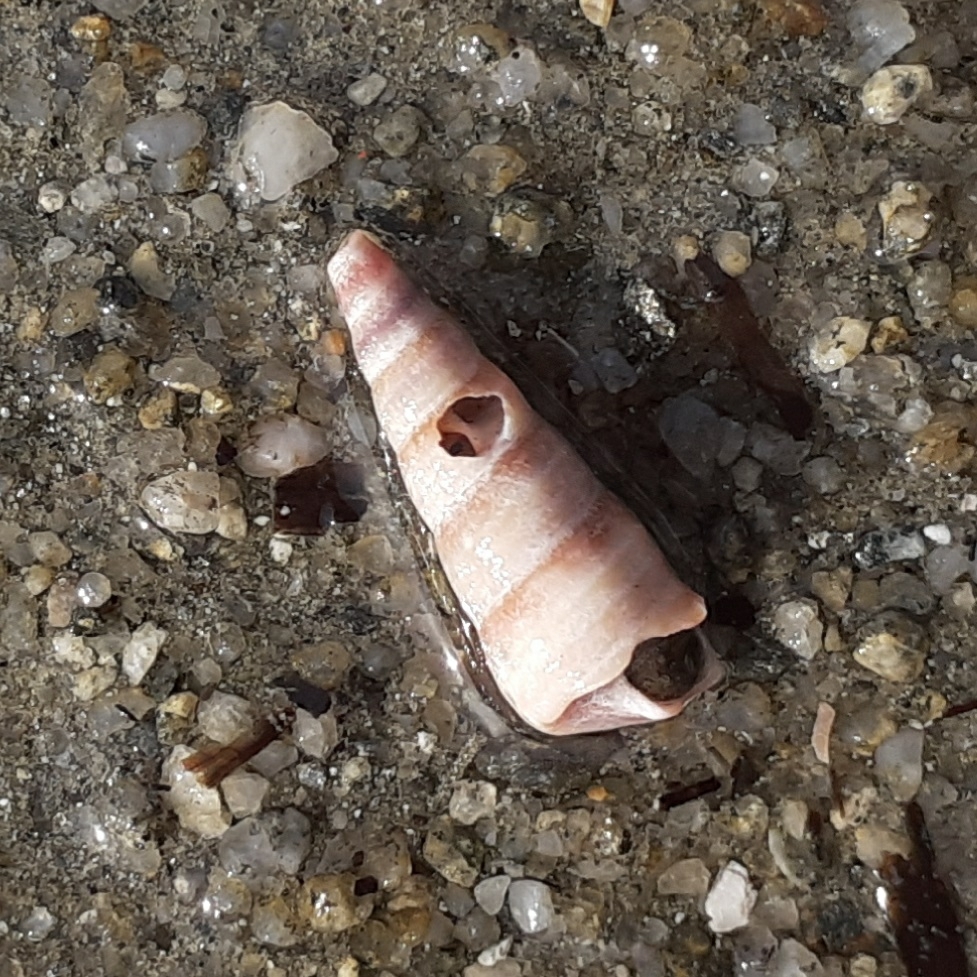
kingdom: Animalia
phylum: Mollusca
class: Gastropoda
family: Turritellidae
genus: Turritellinella
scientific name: Turritellinella tricarinata
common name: Auger shell
